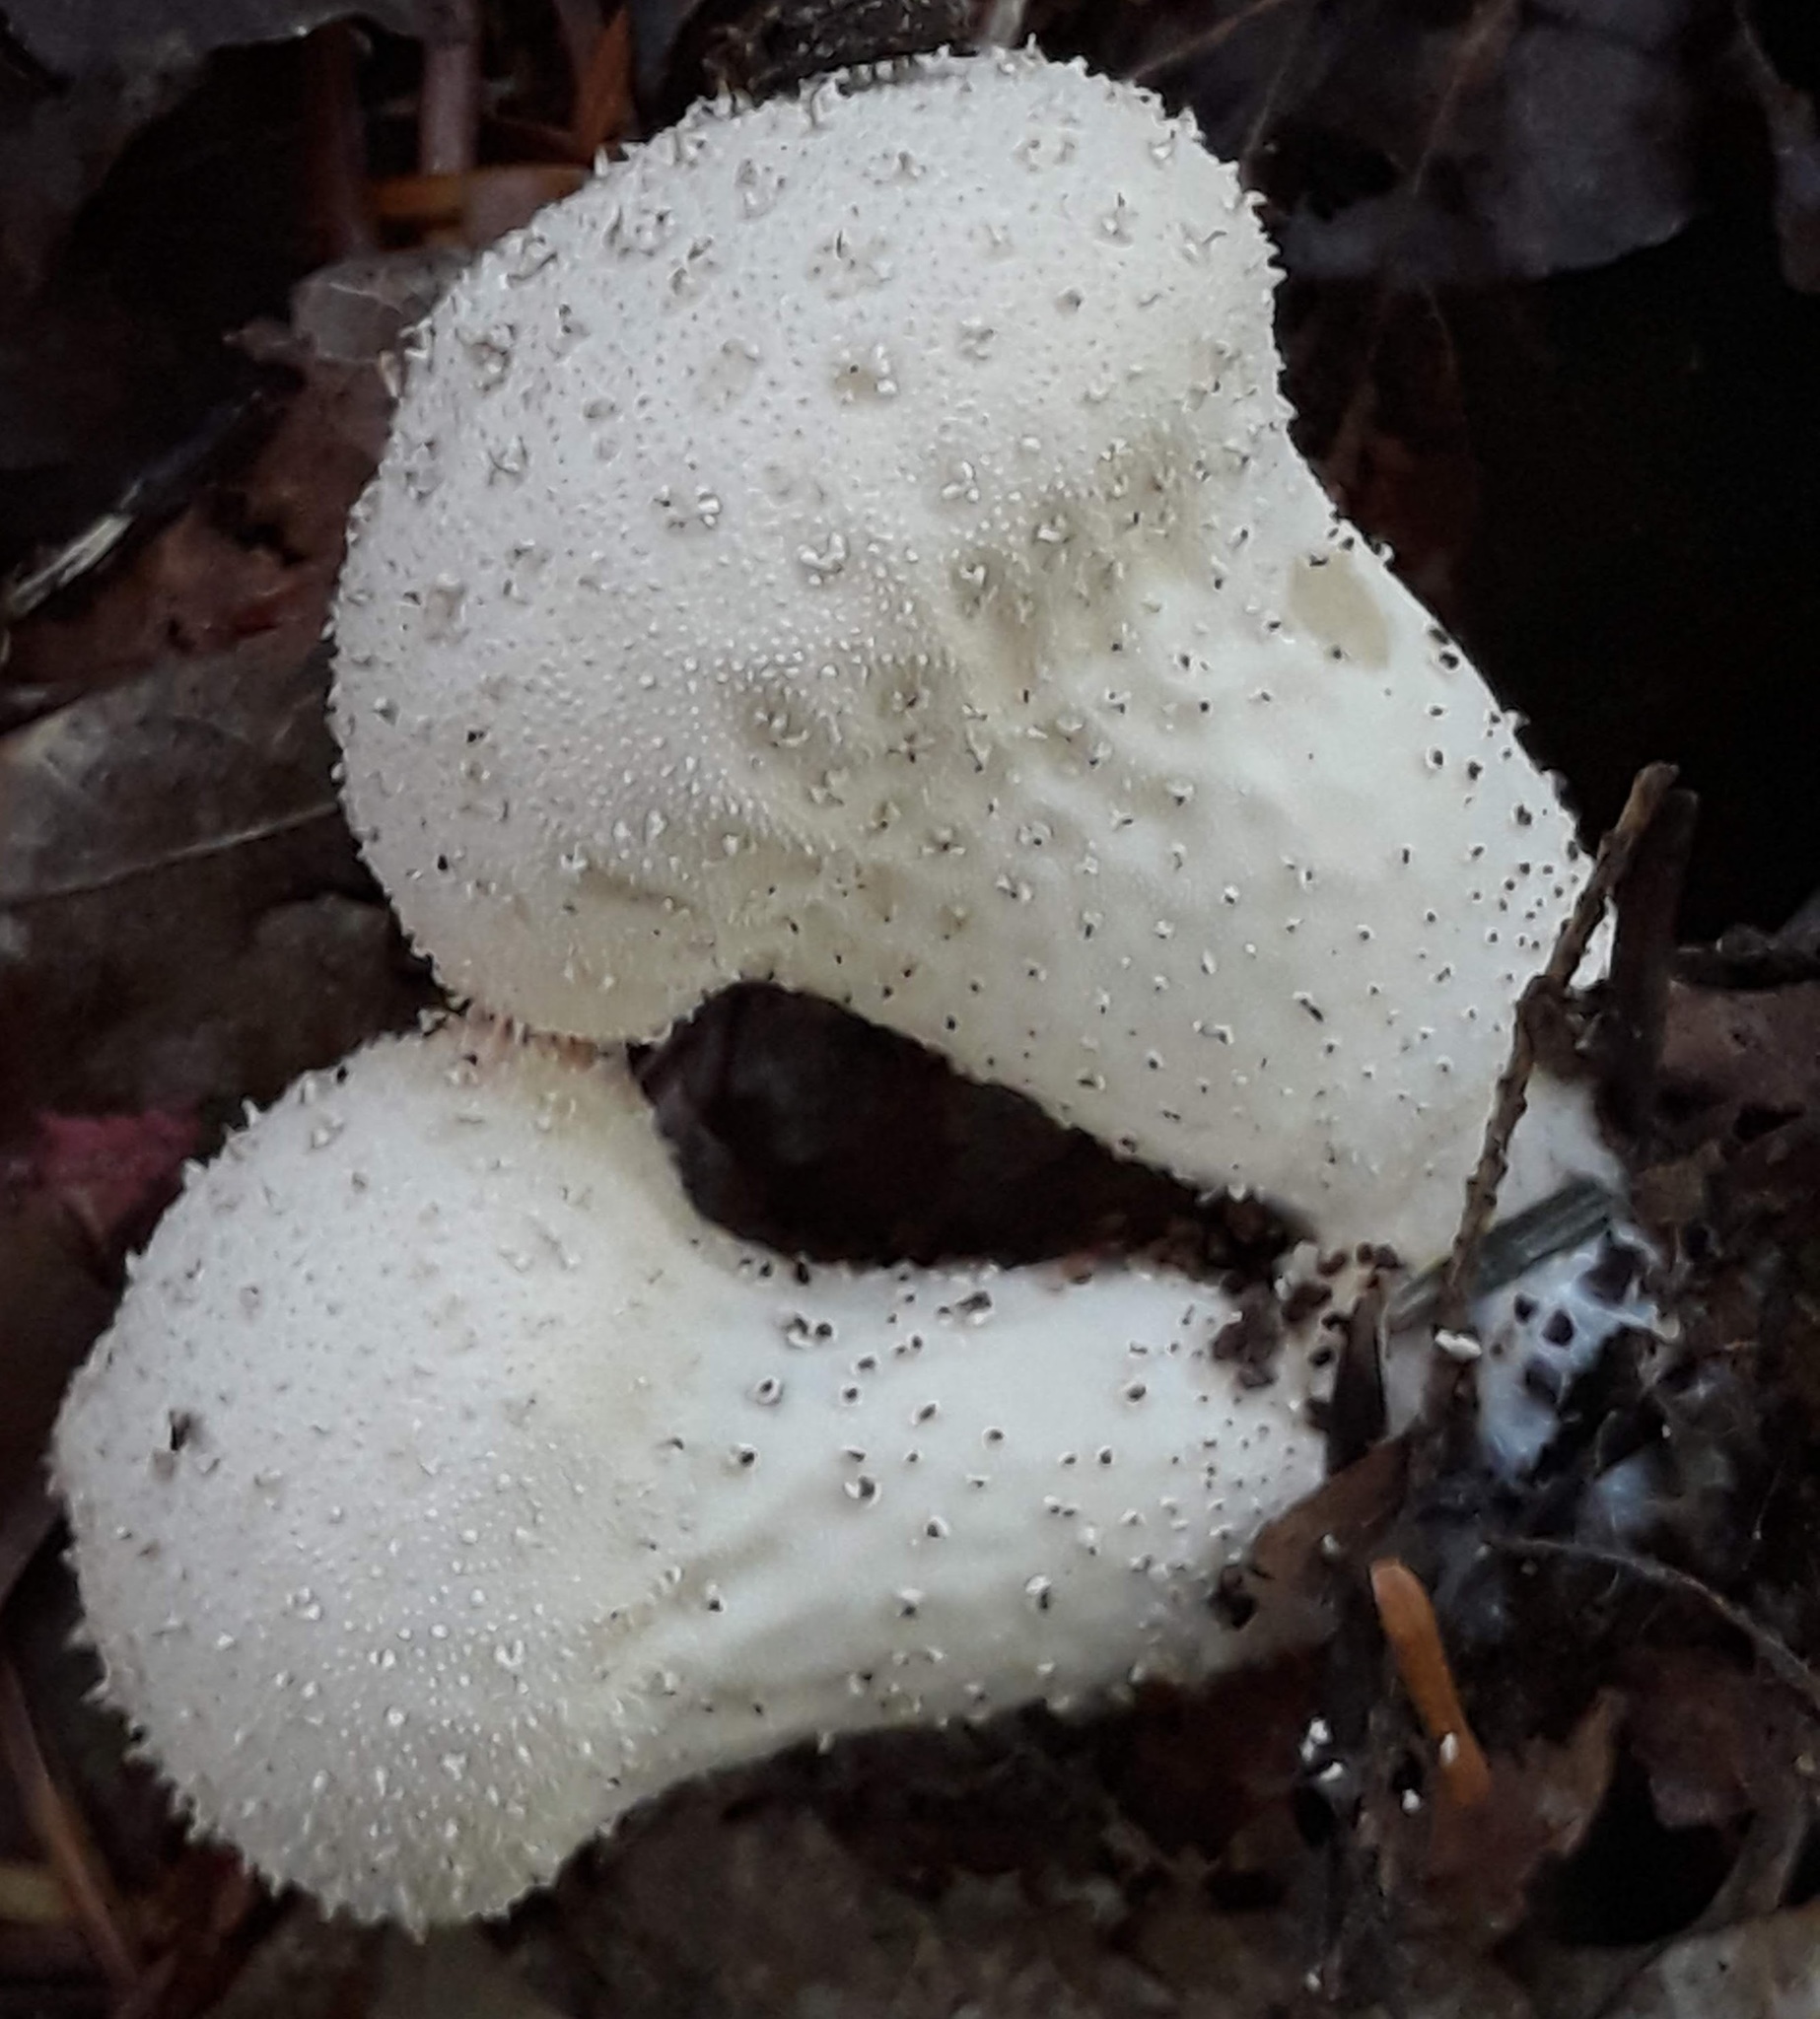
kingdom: Fungi
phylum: Basidiomycota
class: Agaricomycetes
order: Agaricales
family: Lycoperdaceae
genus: Lycoperdon
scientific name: Lycoperdon perlatum
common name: Common puffball
